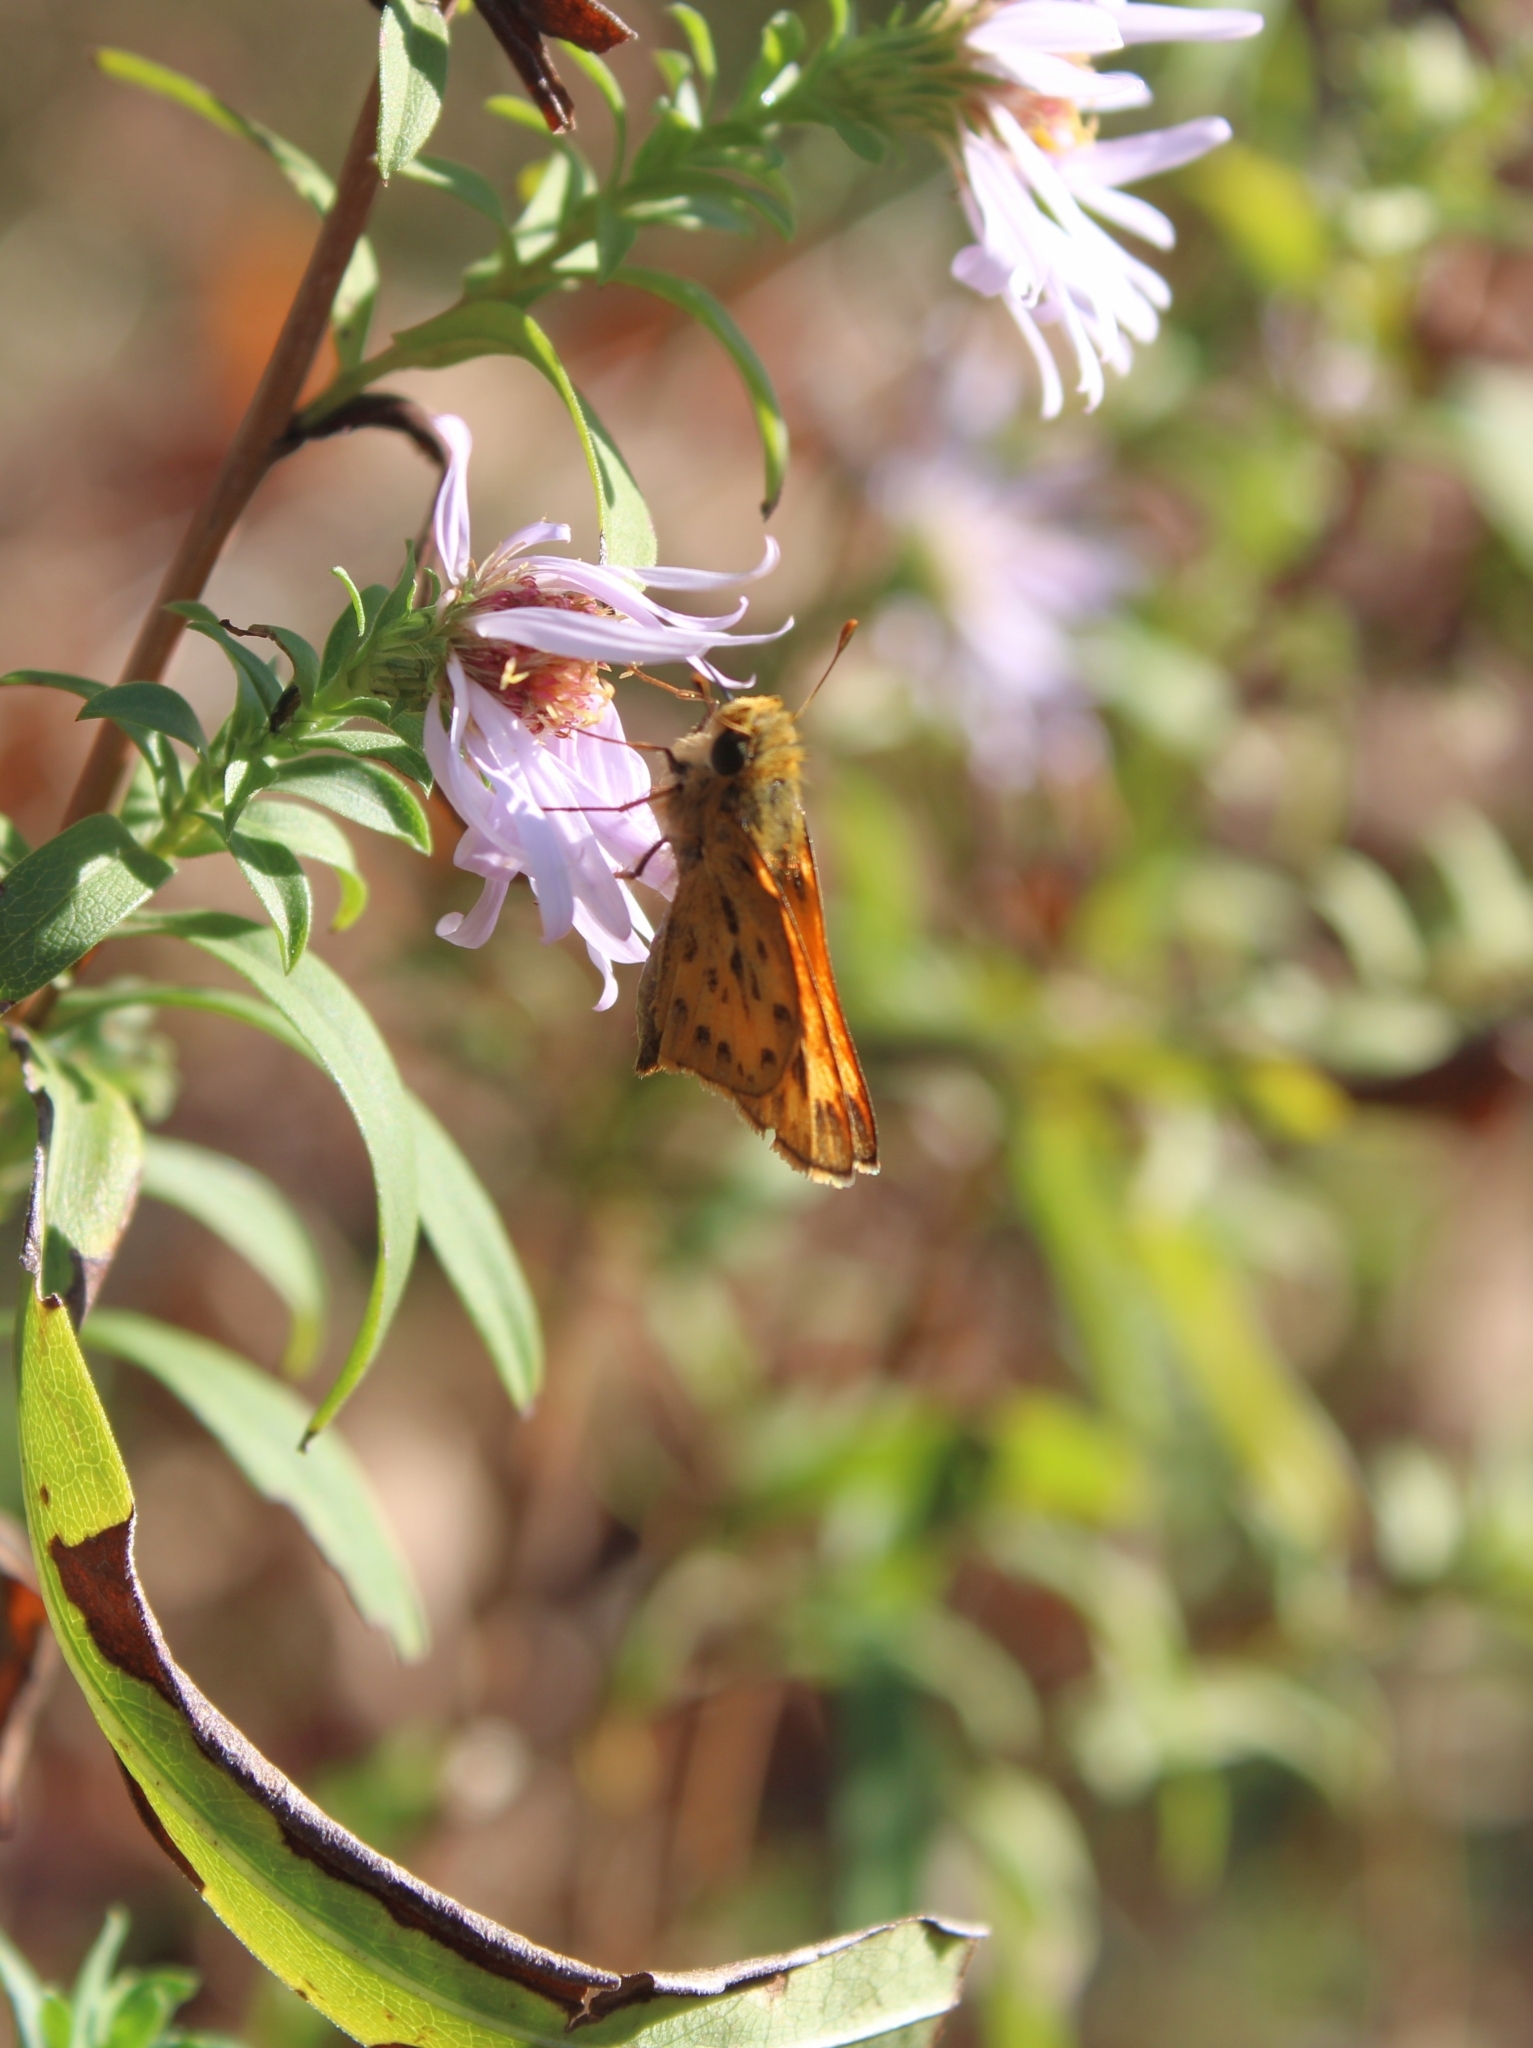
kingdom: Animalia
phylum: Arthropoda
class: Insecta
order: Lepidoptera
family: Hesperiidae
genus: Hylephila
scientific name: Hylephila phyleus
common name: Fiery skipper
